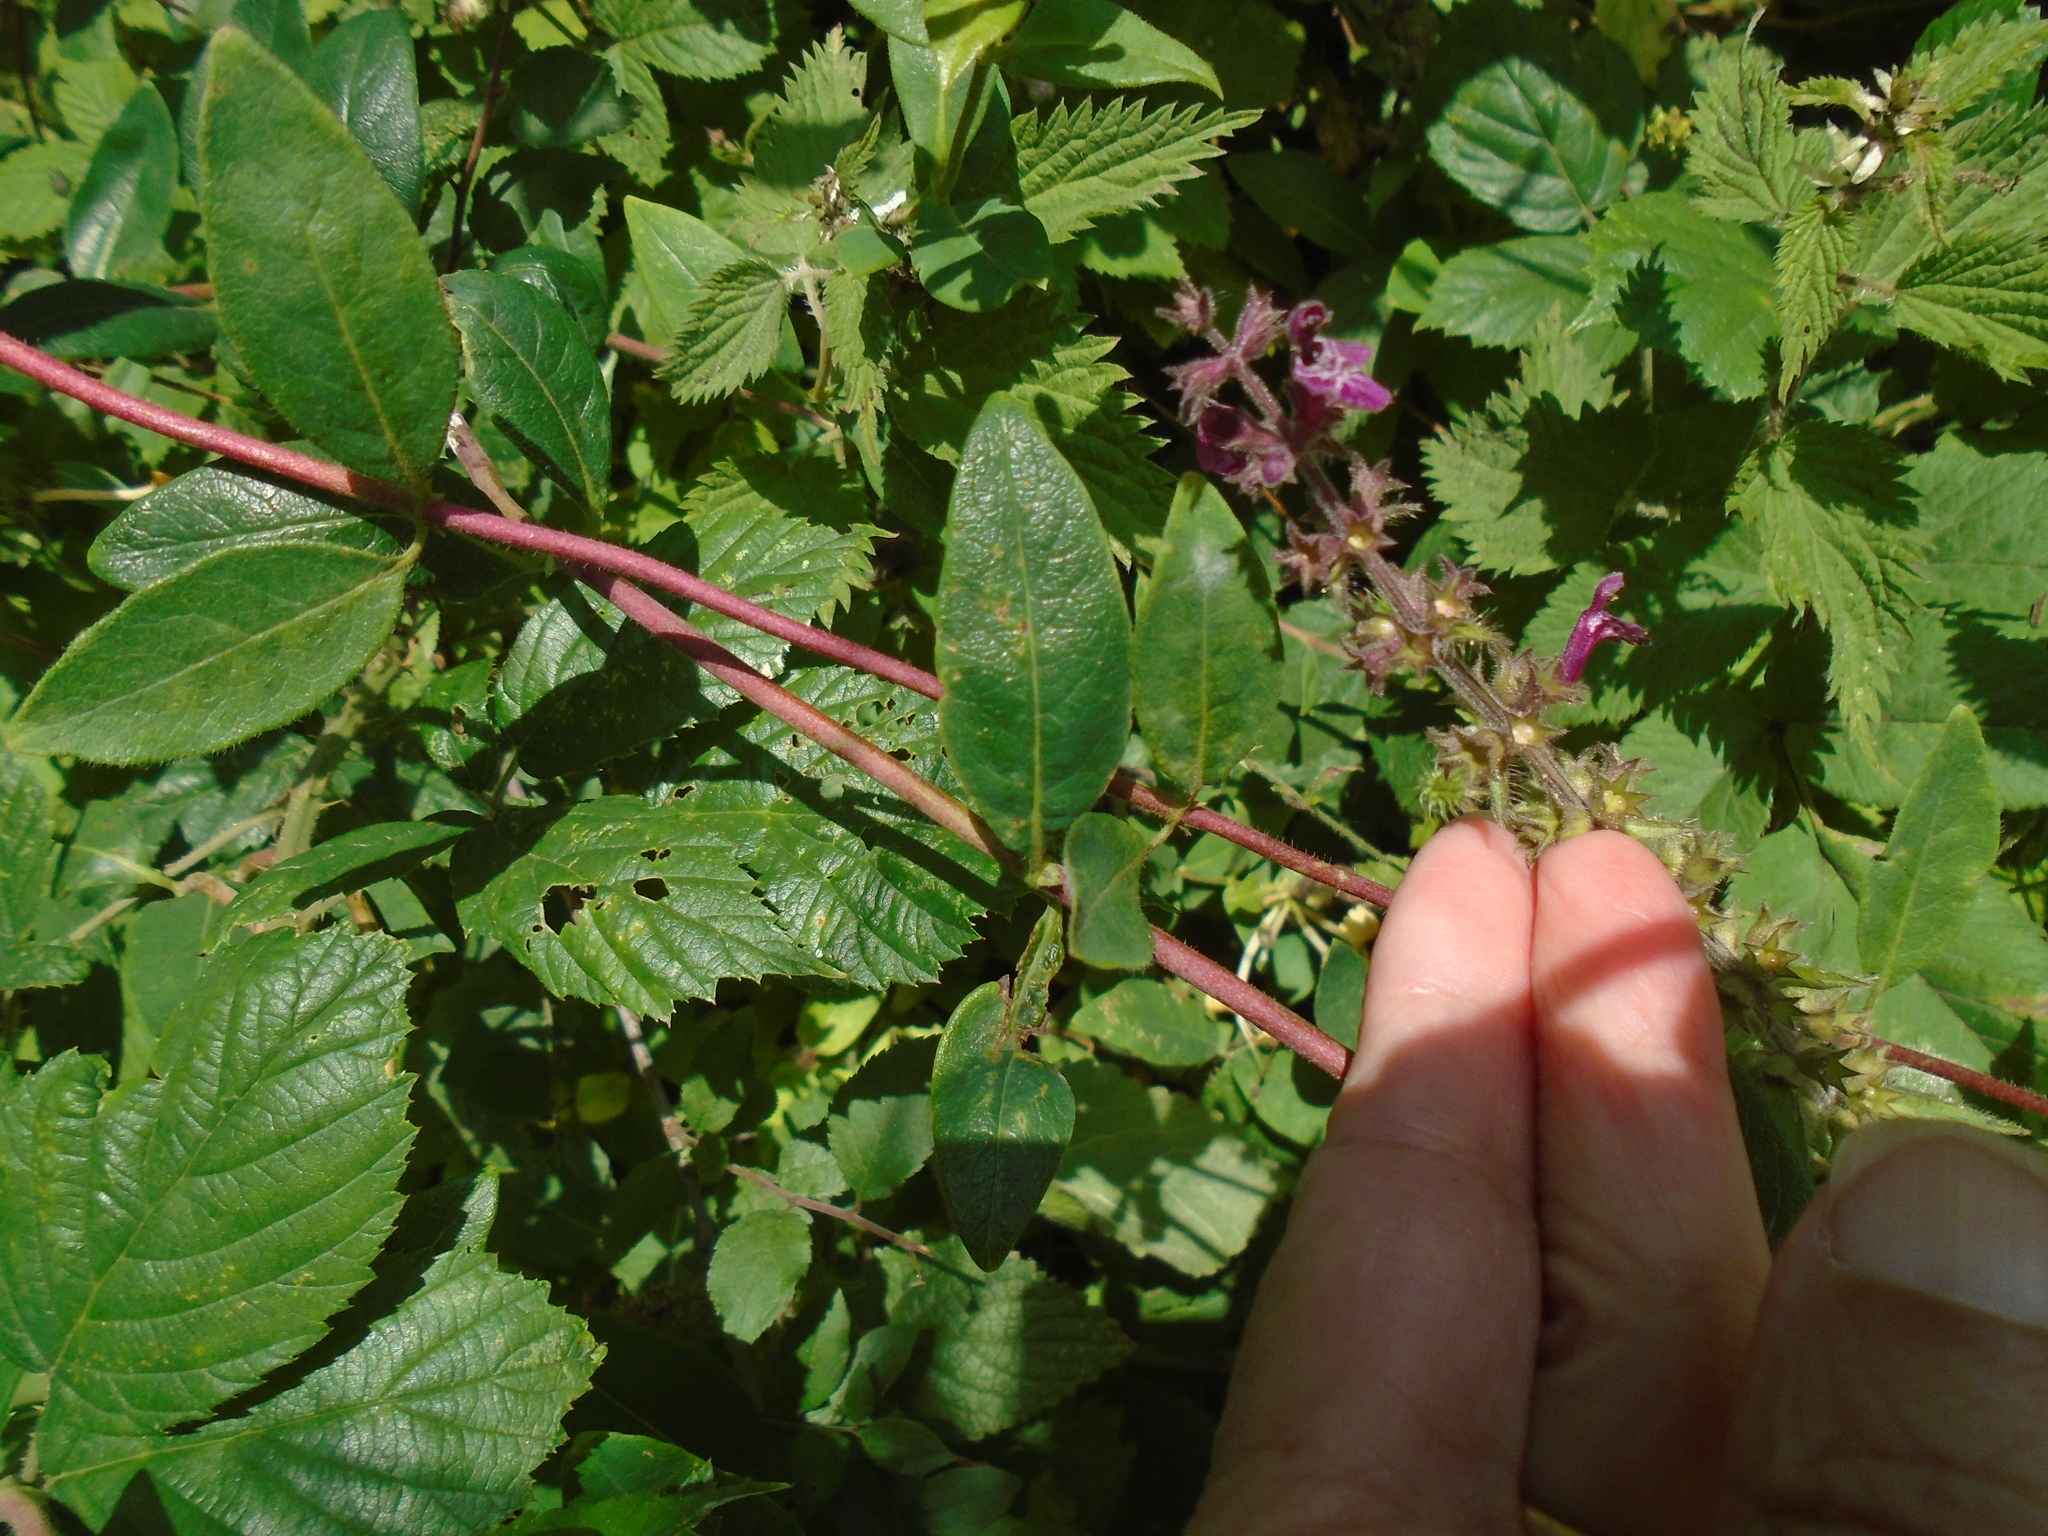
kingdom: Plantae
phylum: Tracheophyta
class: Magnoliopsida
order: Lamiales
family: Lamiaceae
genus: Stachys
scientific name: Stachys sylvatica
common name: Hedge woundwort
